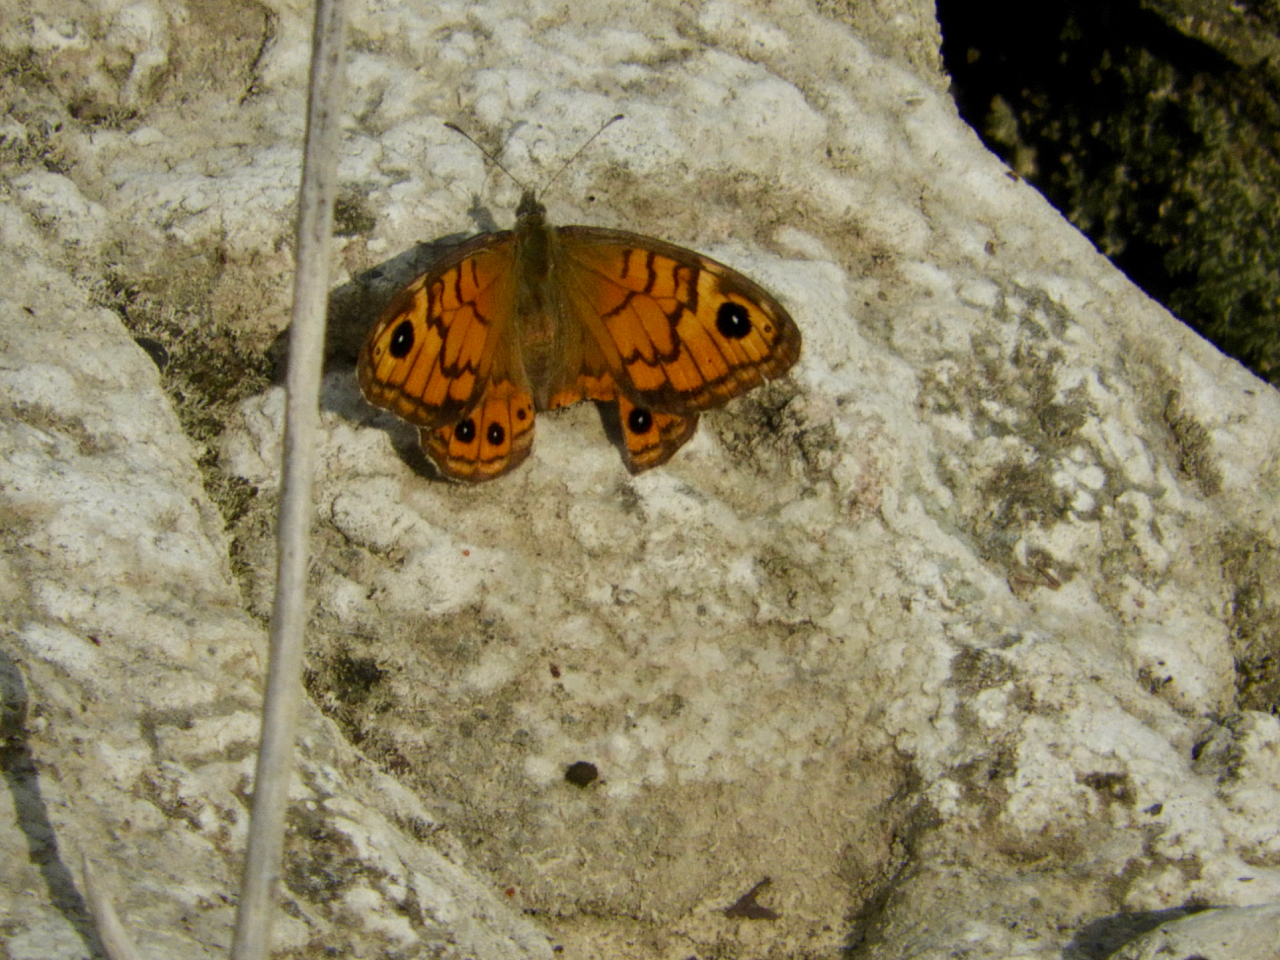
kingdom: Animalia
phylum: Arthropoda
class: Insecta
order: Lepidoptera
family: Nymphalidae
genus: Pararge
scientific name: Pararge Lasiommata megera
